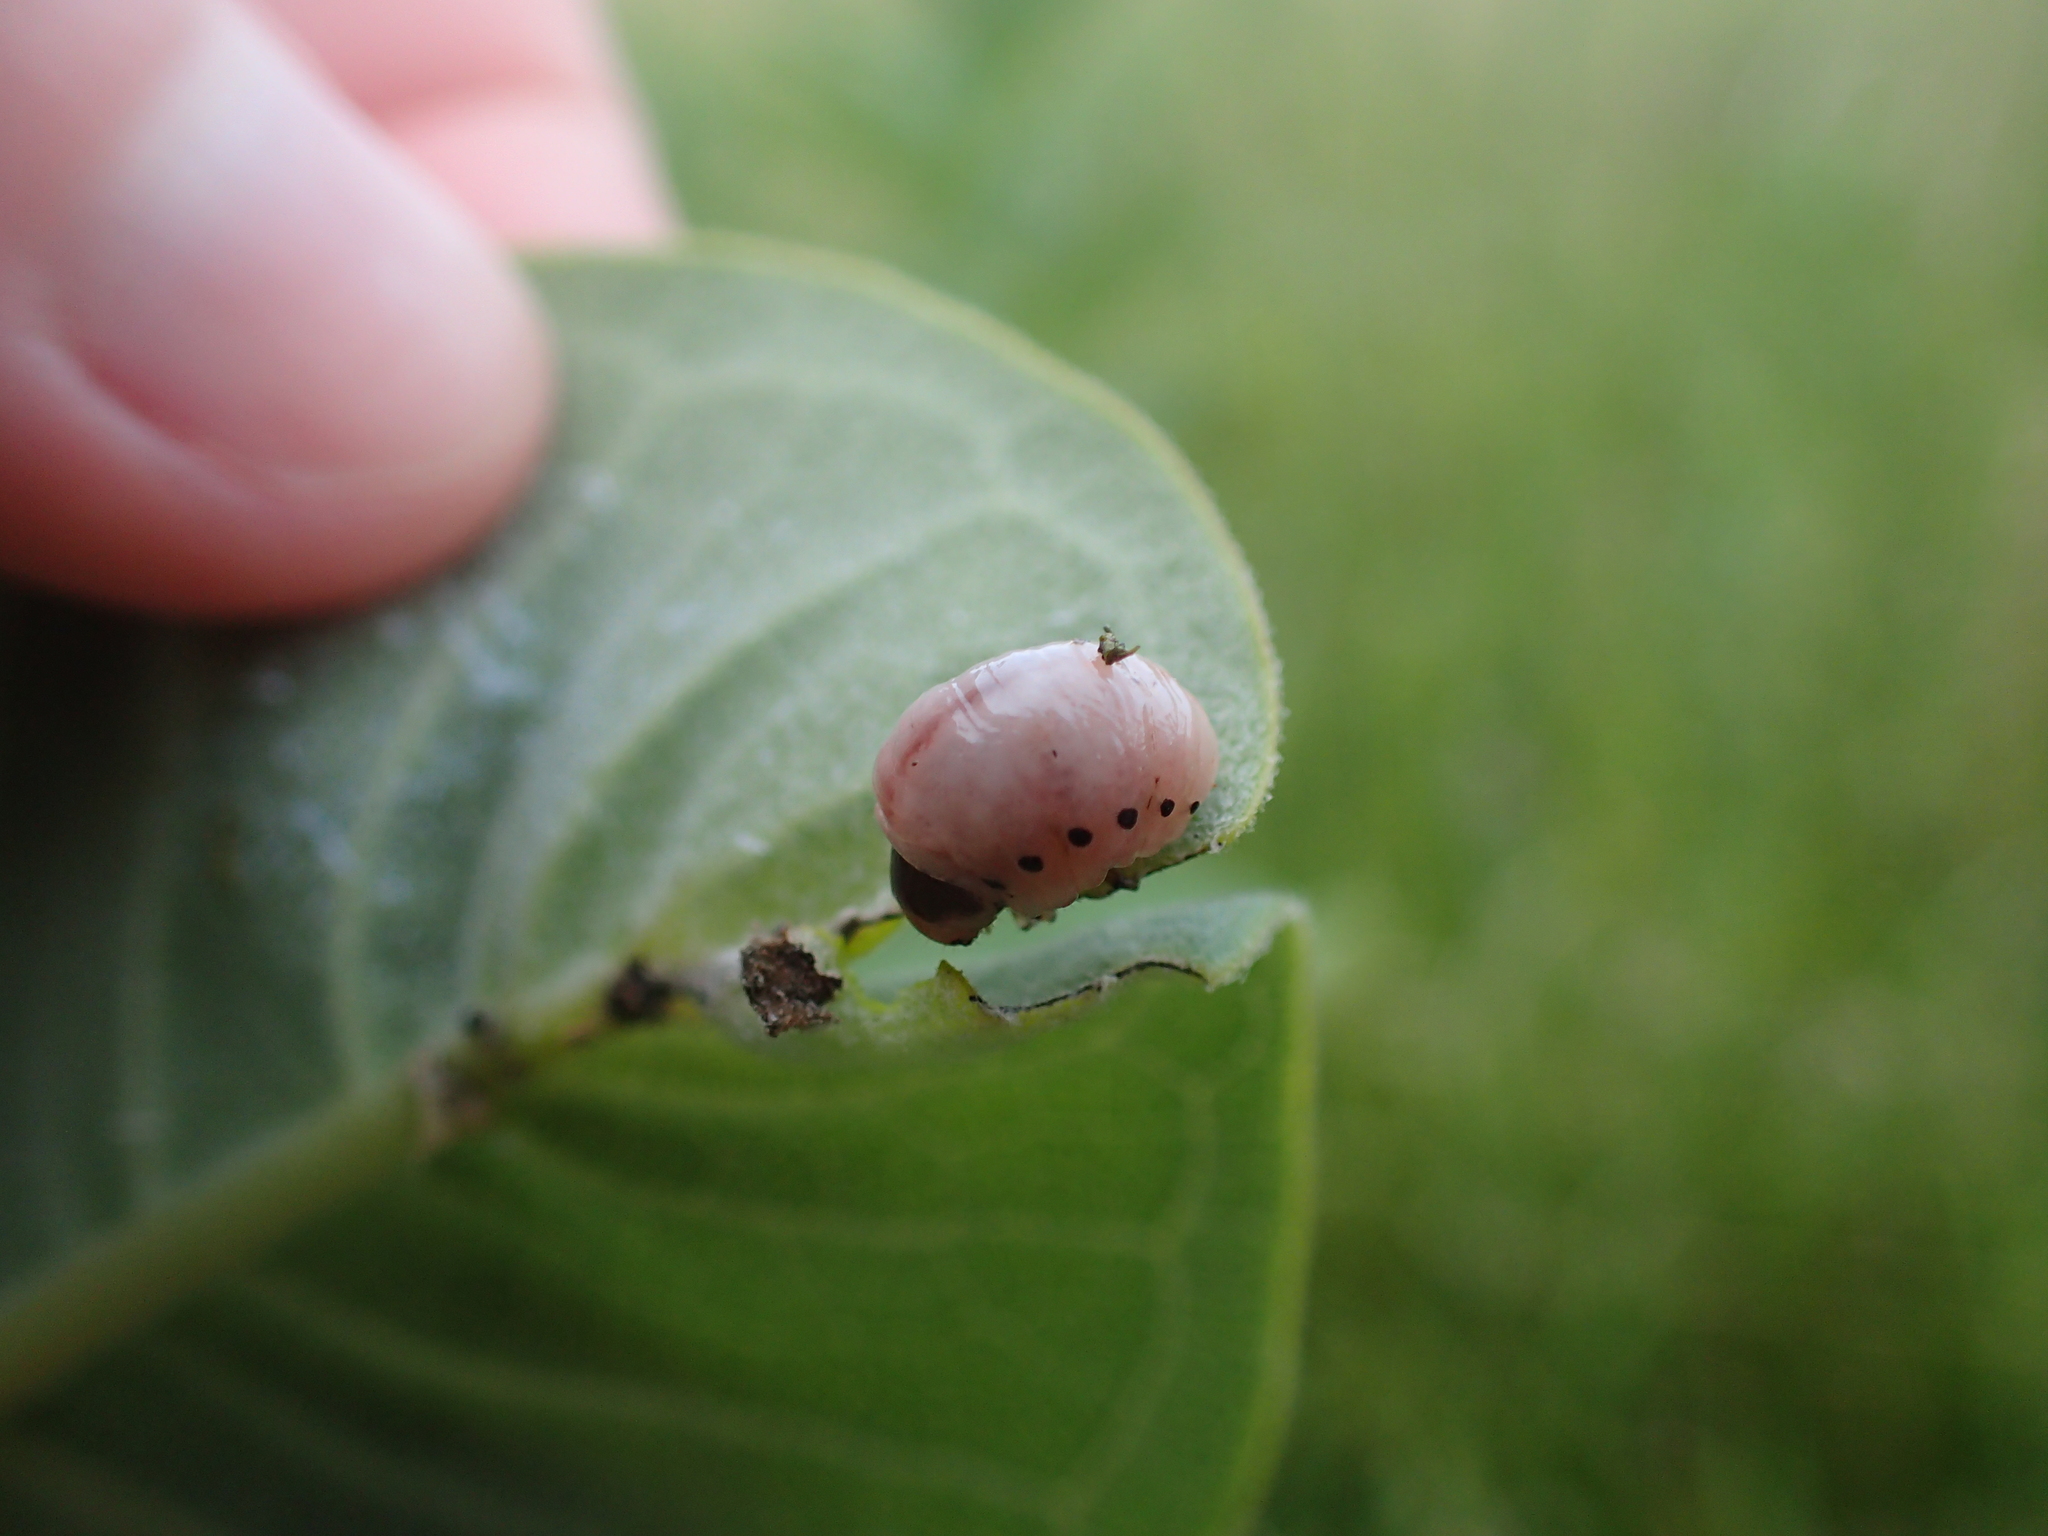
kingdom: Animalia
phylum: Arthropoda
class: Insecta
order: Coleoptera
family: Chrysomelidae
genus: Labidomera
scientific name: Labidomera clivicollis
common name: Swamp milkweed leaf beetle
